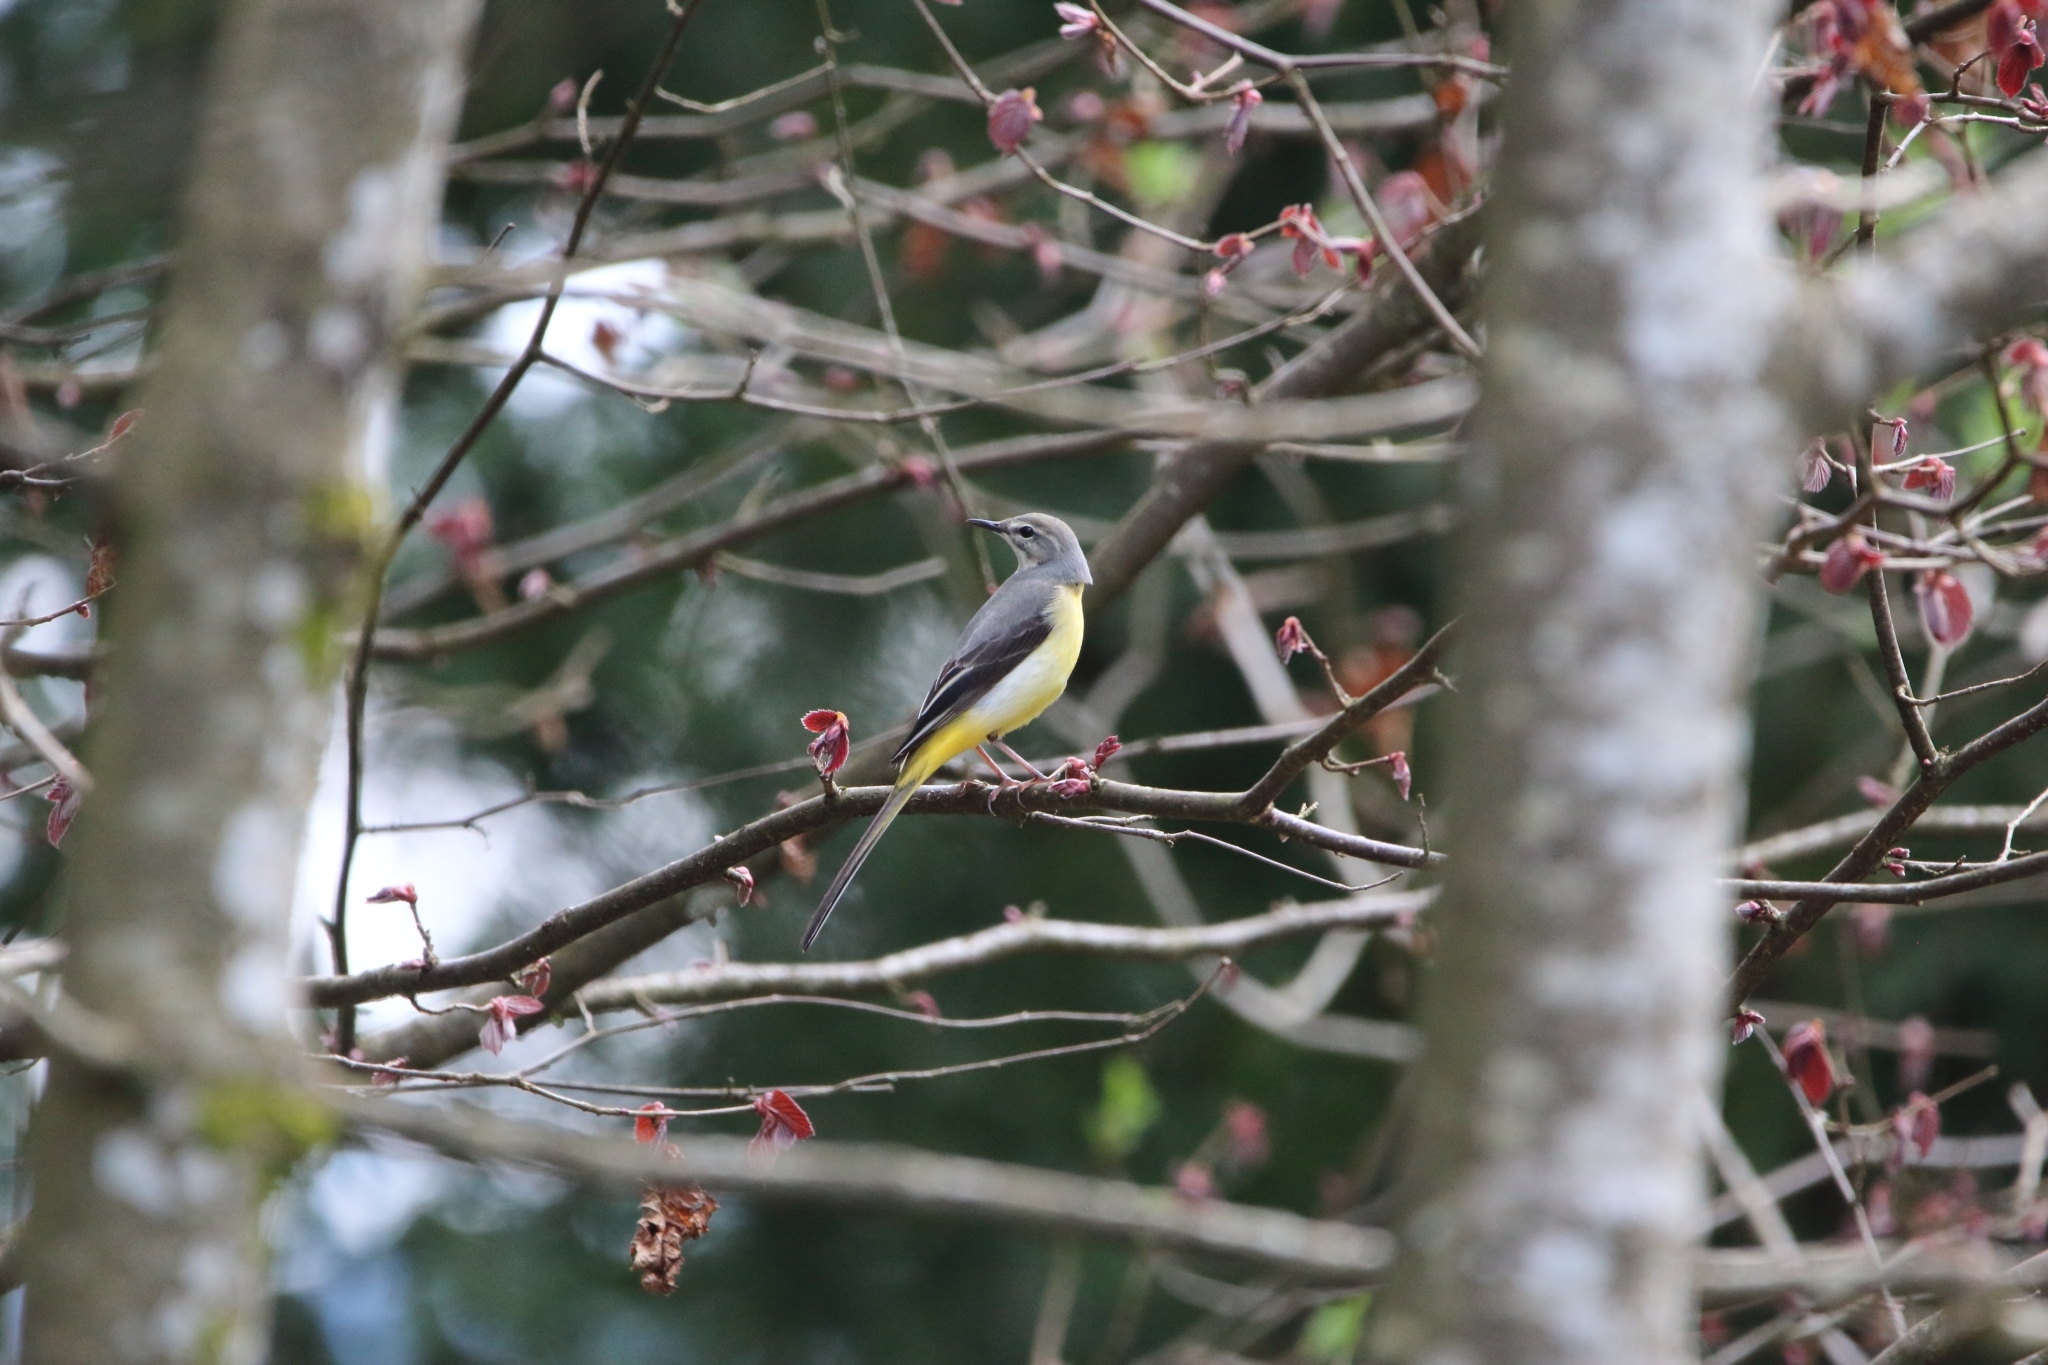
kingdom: Animalia
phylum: Chordata
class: Aves
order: Passeriformes
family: Motacillidae
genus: Motacilla
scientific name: Motacilla cinerea
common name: Grey wagtail
